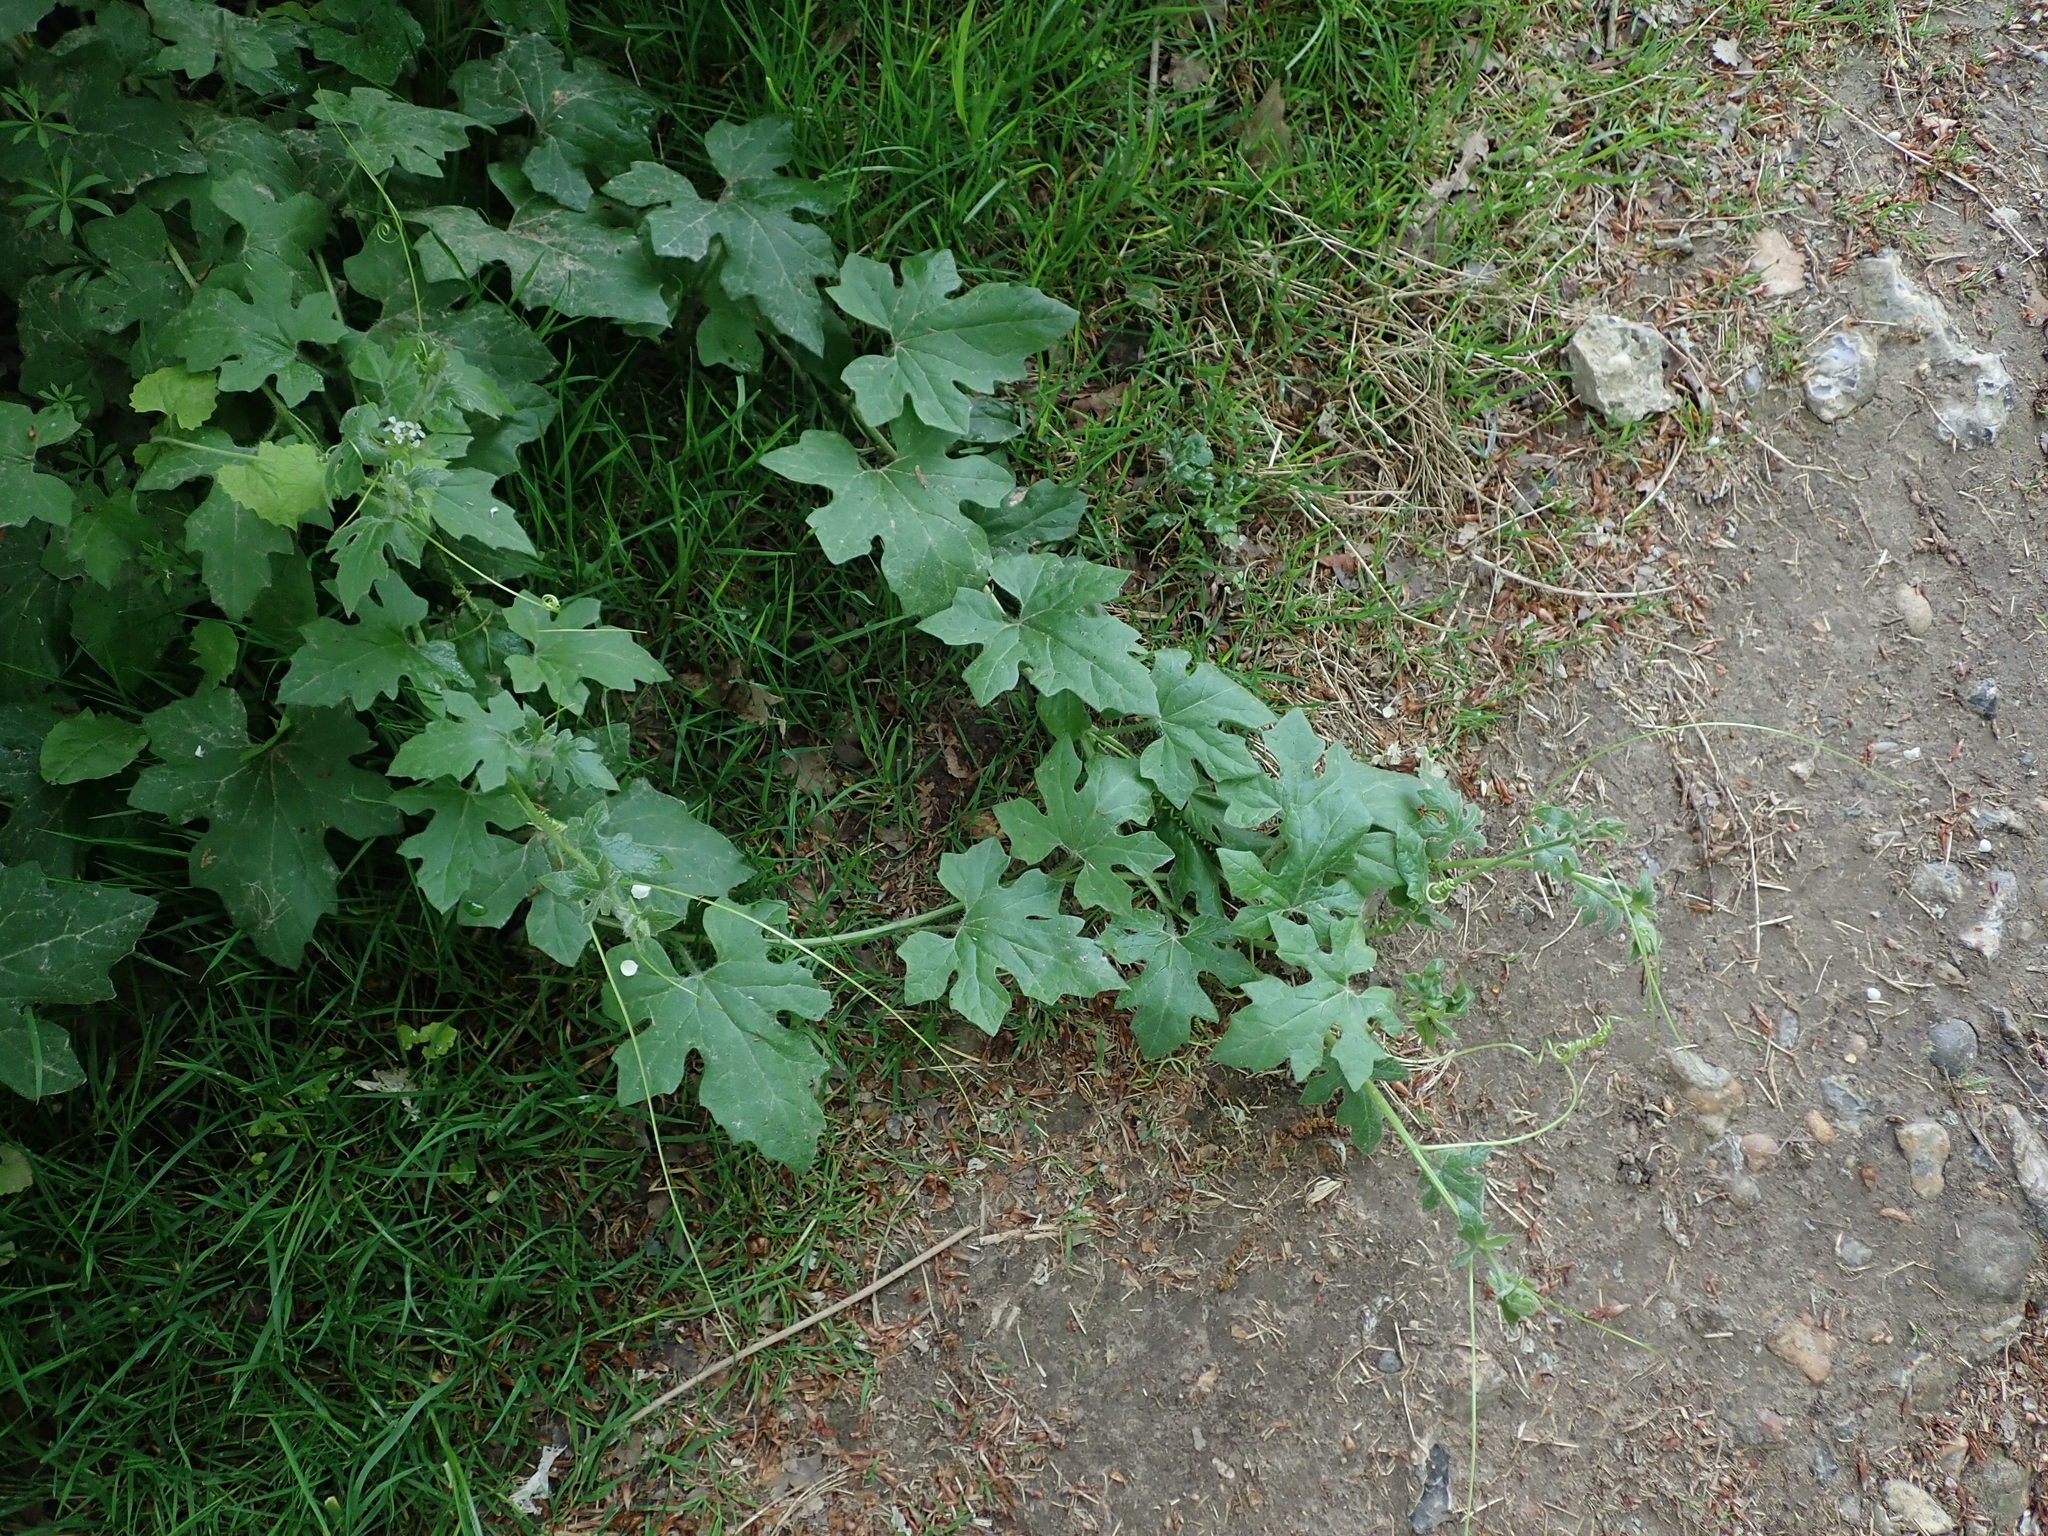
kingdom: Plantae
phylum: Tracheophyta
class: Magnoliopsida
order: Cucurbitales
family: Cucurbitaceae
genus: Bryonia
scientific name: Bryonia cretica
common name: Cretan bryony
